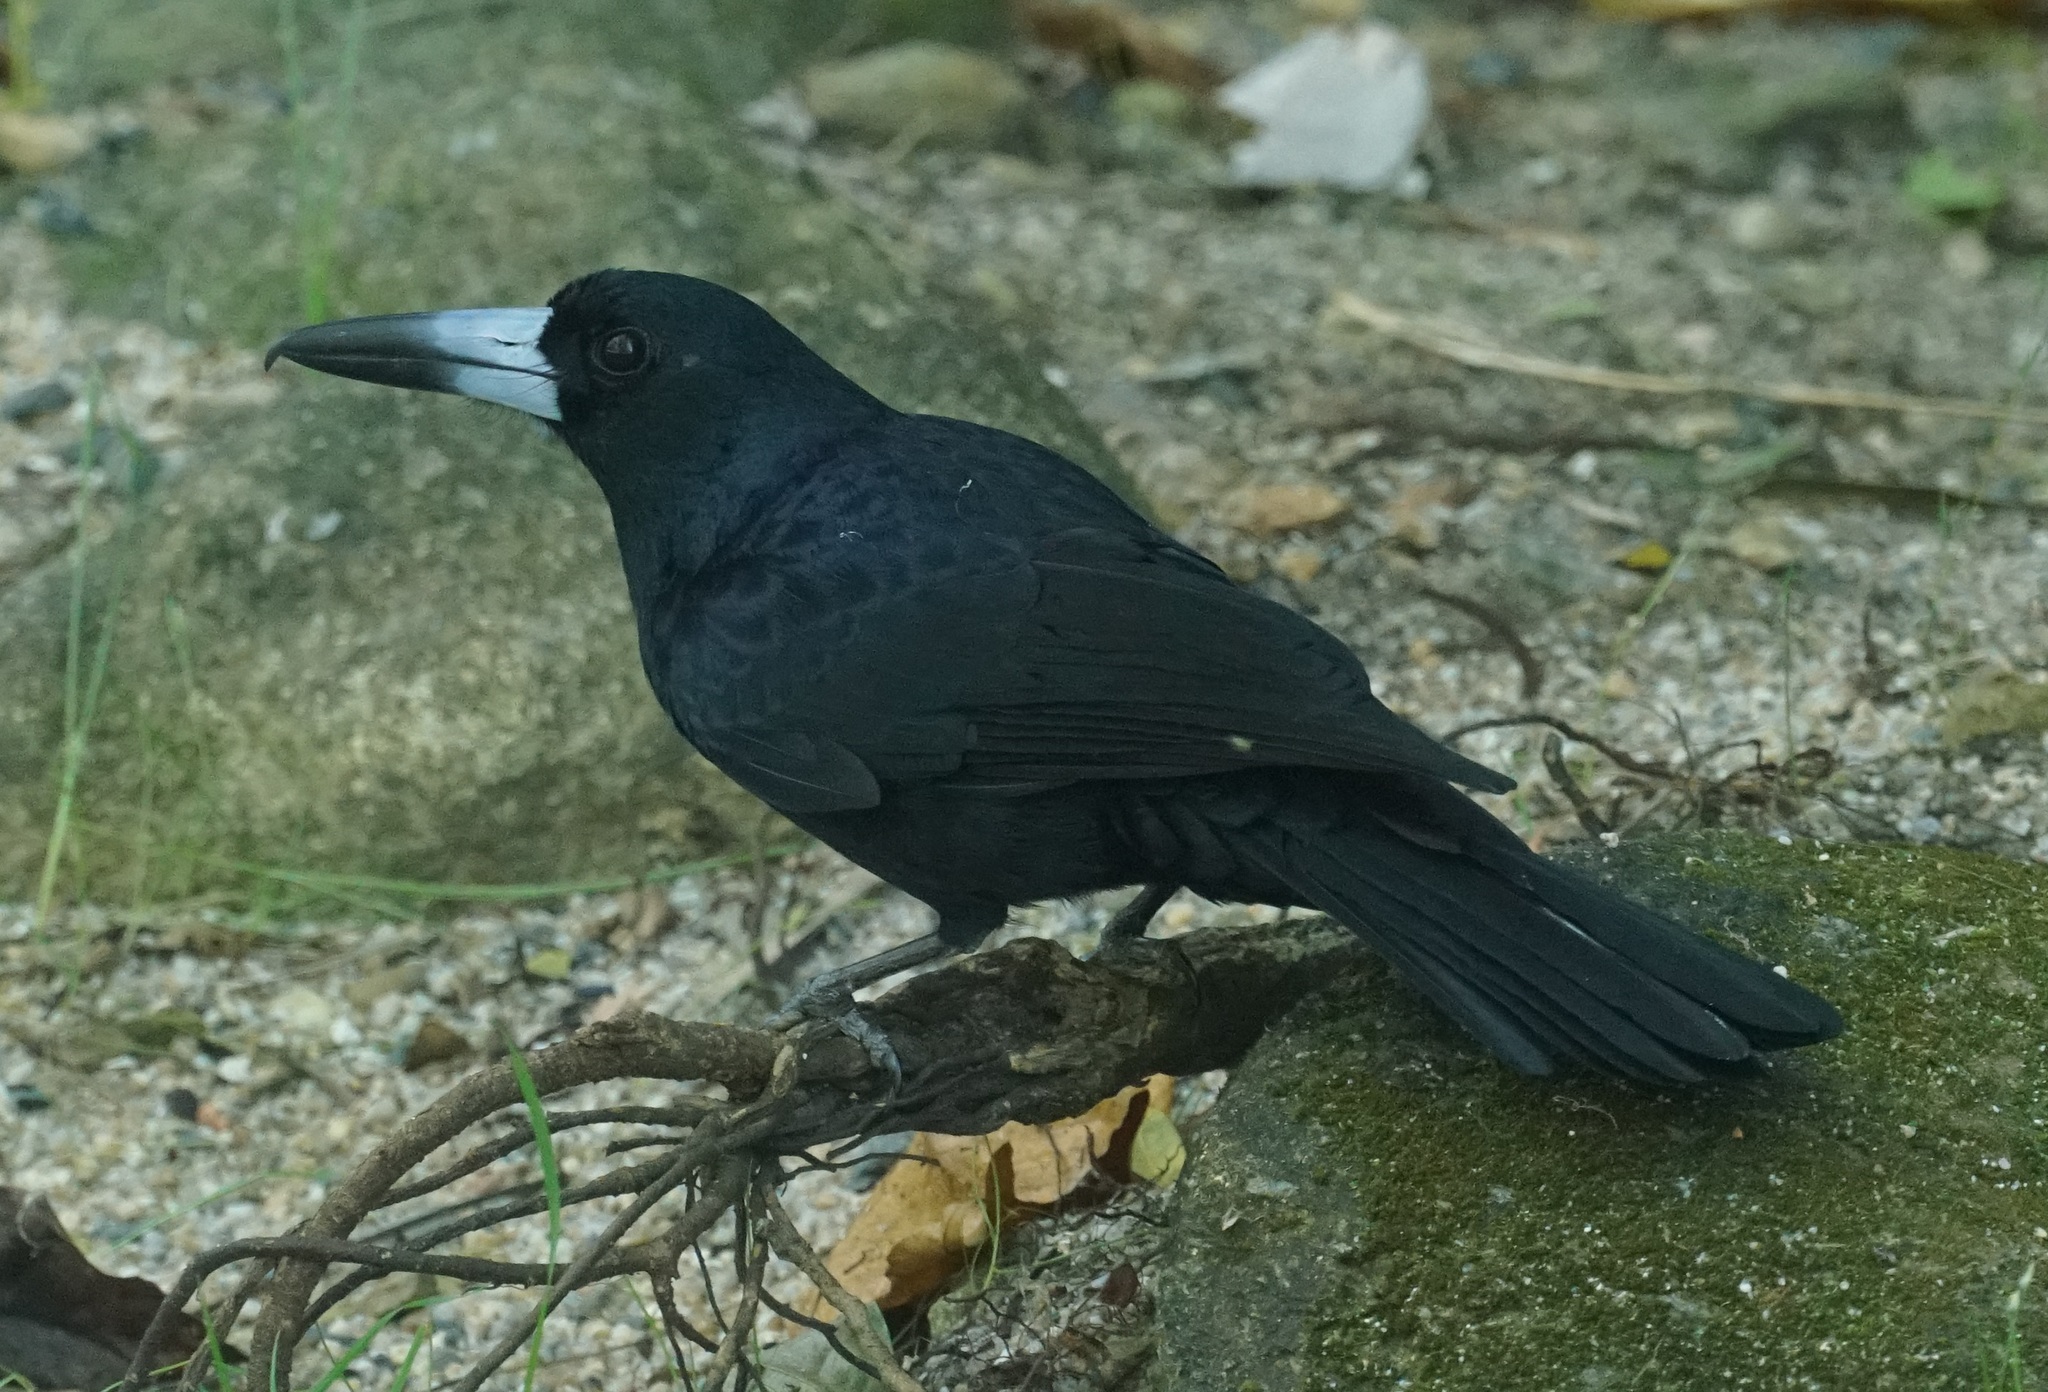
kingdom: Animalia
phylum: Chordata
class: Aves
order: Passeriformes
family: Artamidae
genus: Melloria
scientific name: Melloria quoyi
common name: Black butcherbird
